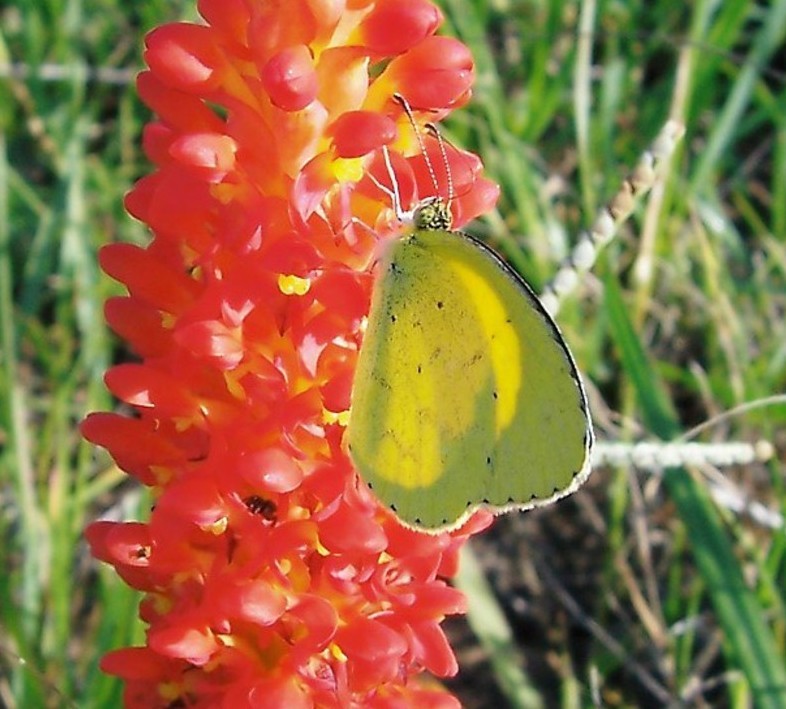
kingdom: Animalia
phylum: Arthropoda
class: Insecta
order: Lepidoptera
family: Pieridae
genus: Eurema
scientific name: Eurema brigitta
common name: Small grass yellow
